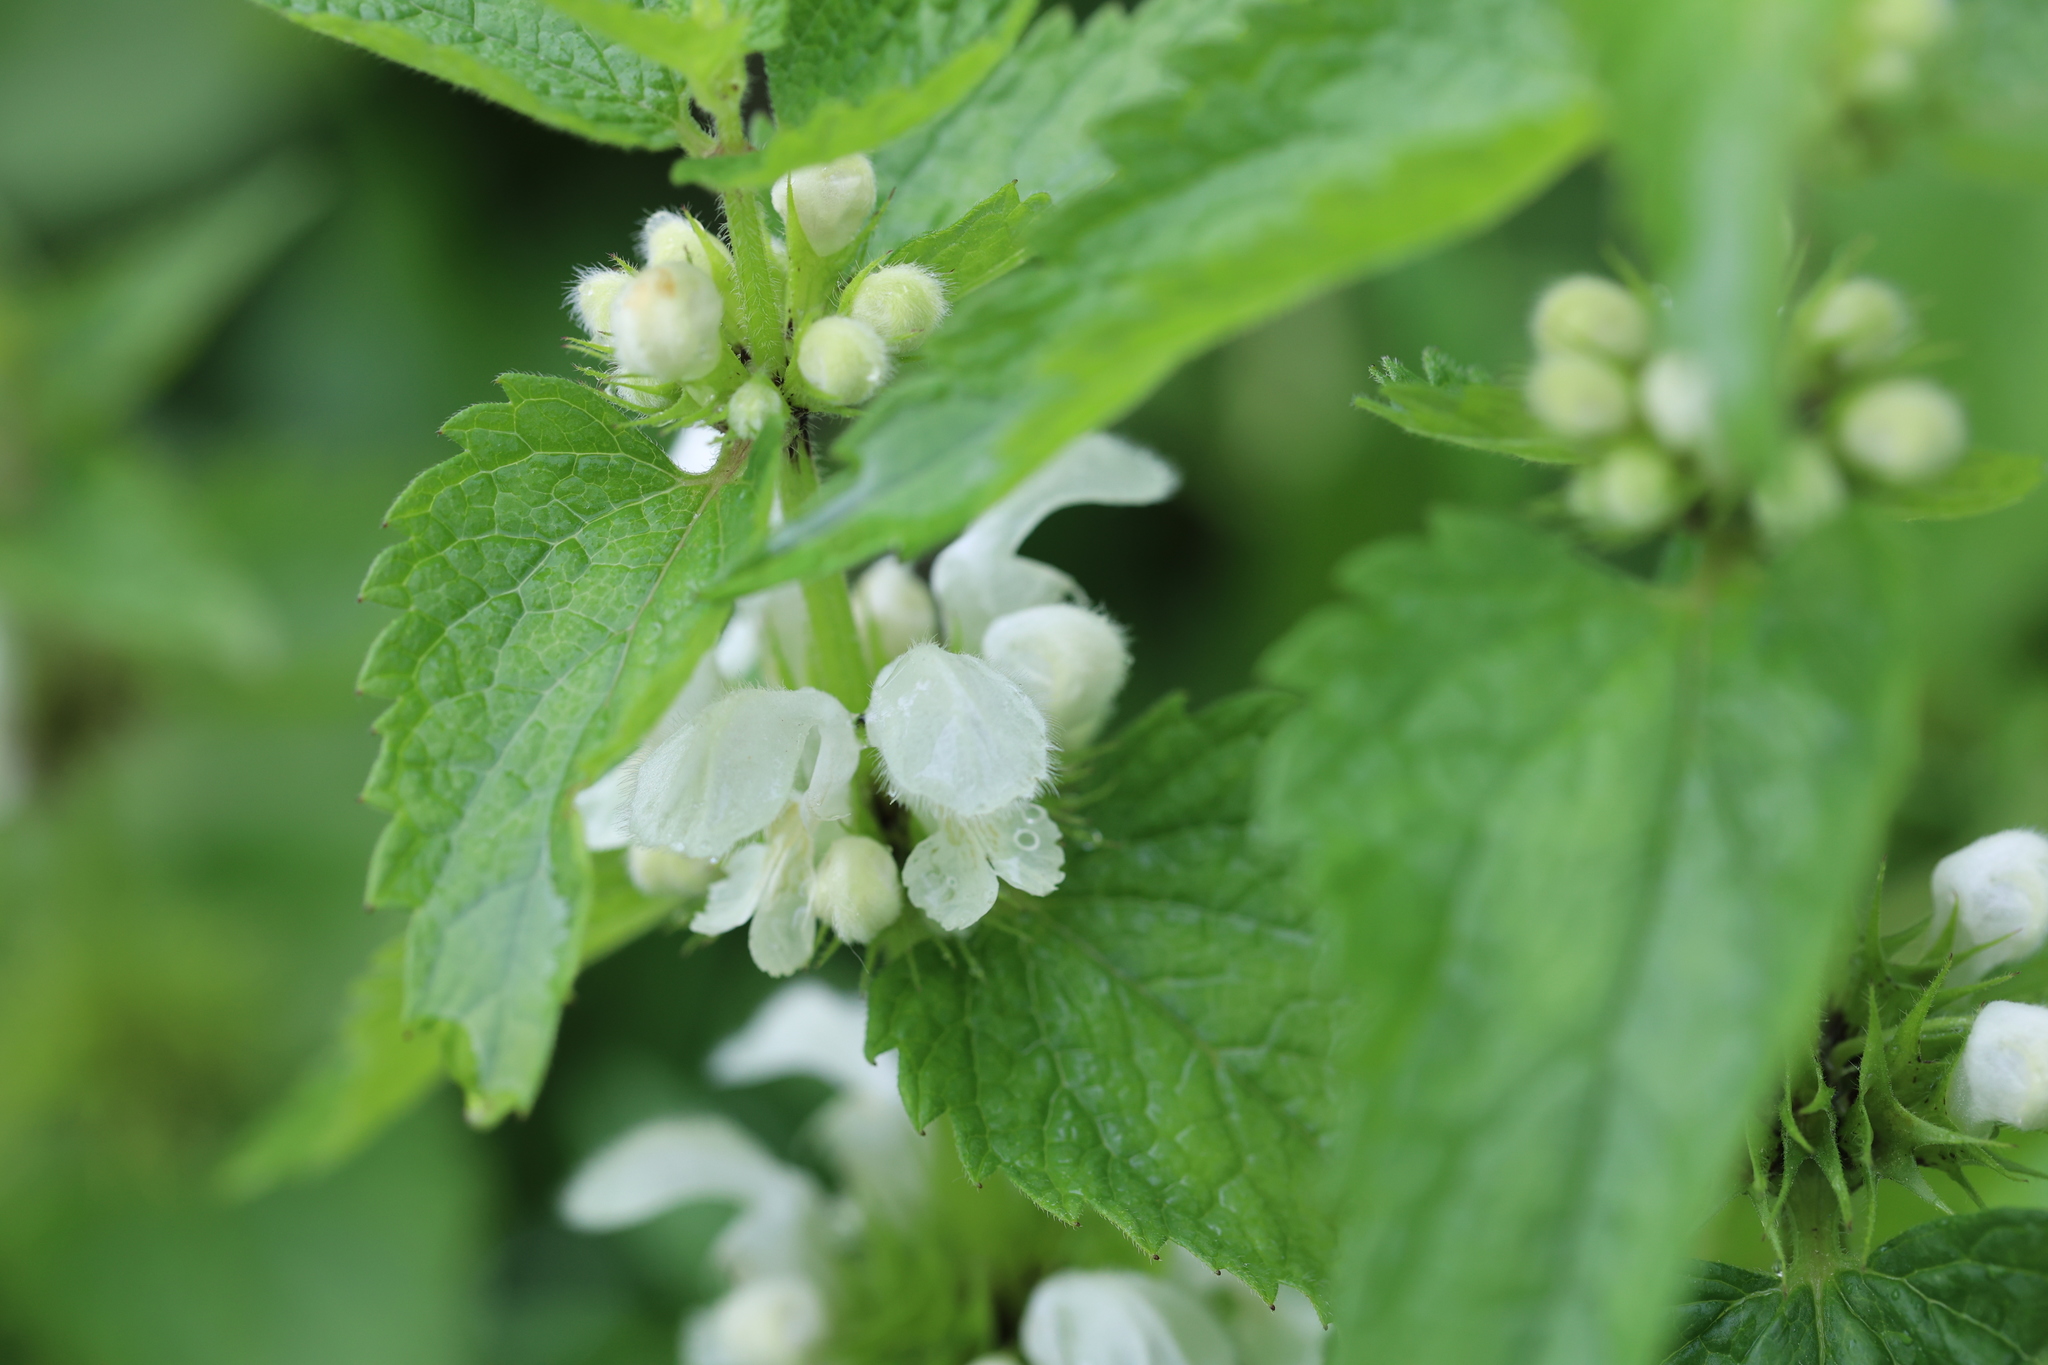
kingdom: Plantae
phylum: Tracheophyta
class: Magnoliopsida
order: Lamiales
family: Lamiaceae
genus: Lamium
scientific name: Lamium album
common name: White dead-nettle
